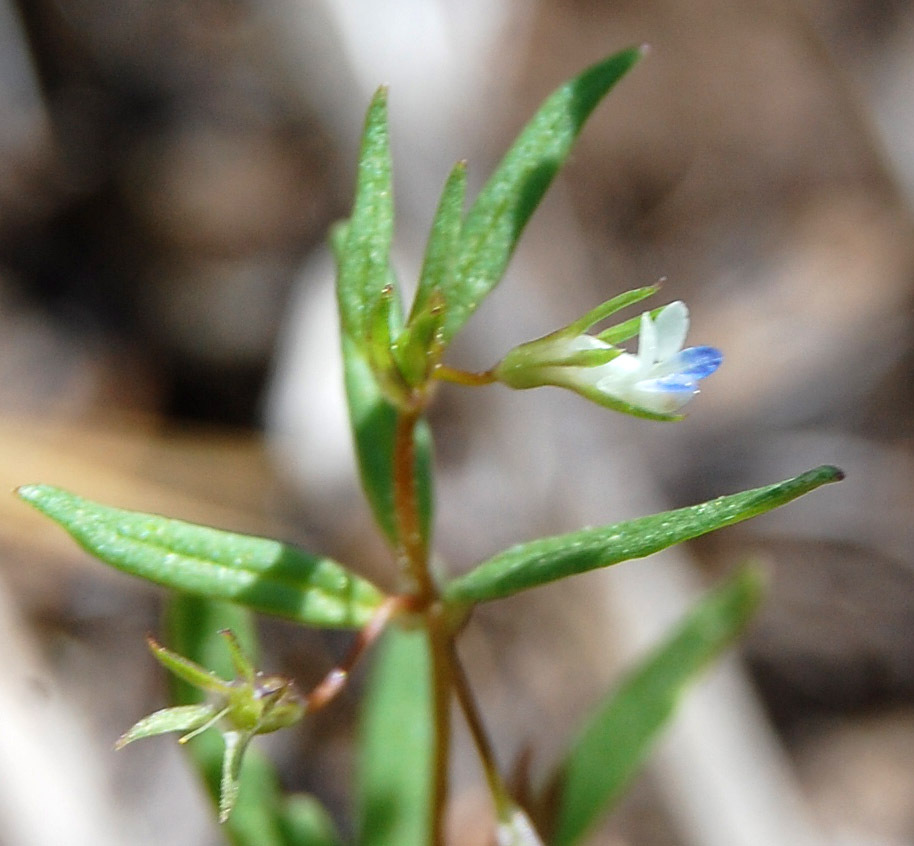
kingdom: Plantae
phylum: Tracheophyta
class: Magnoliopsida
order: Lamiales
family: Plantaginaceae
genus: Collinsia
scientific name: Collinsia parviflora
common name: Blue-lips
